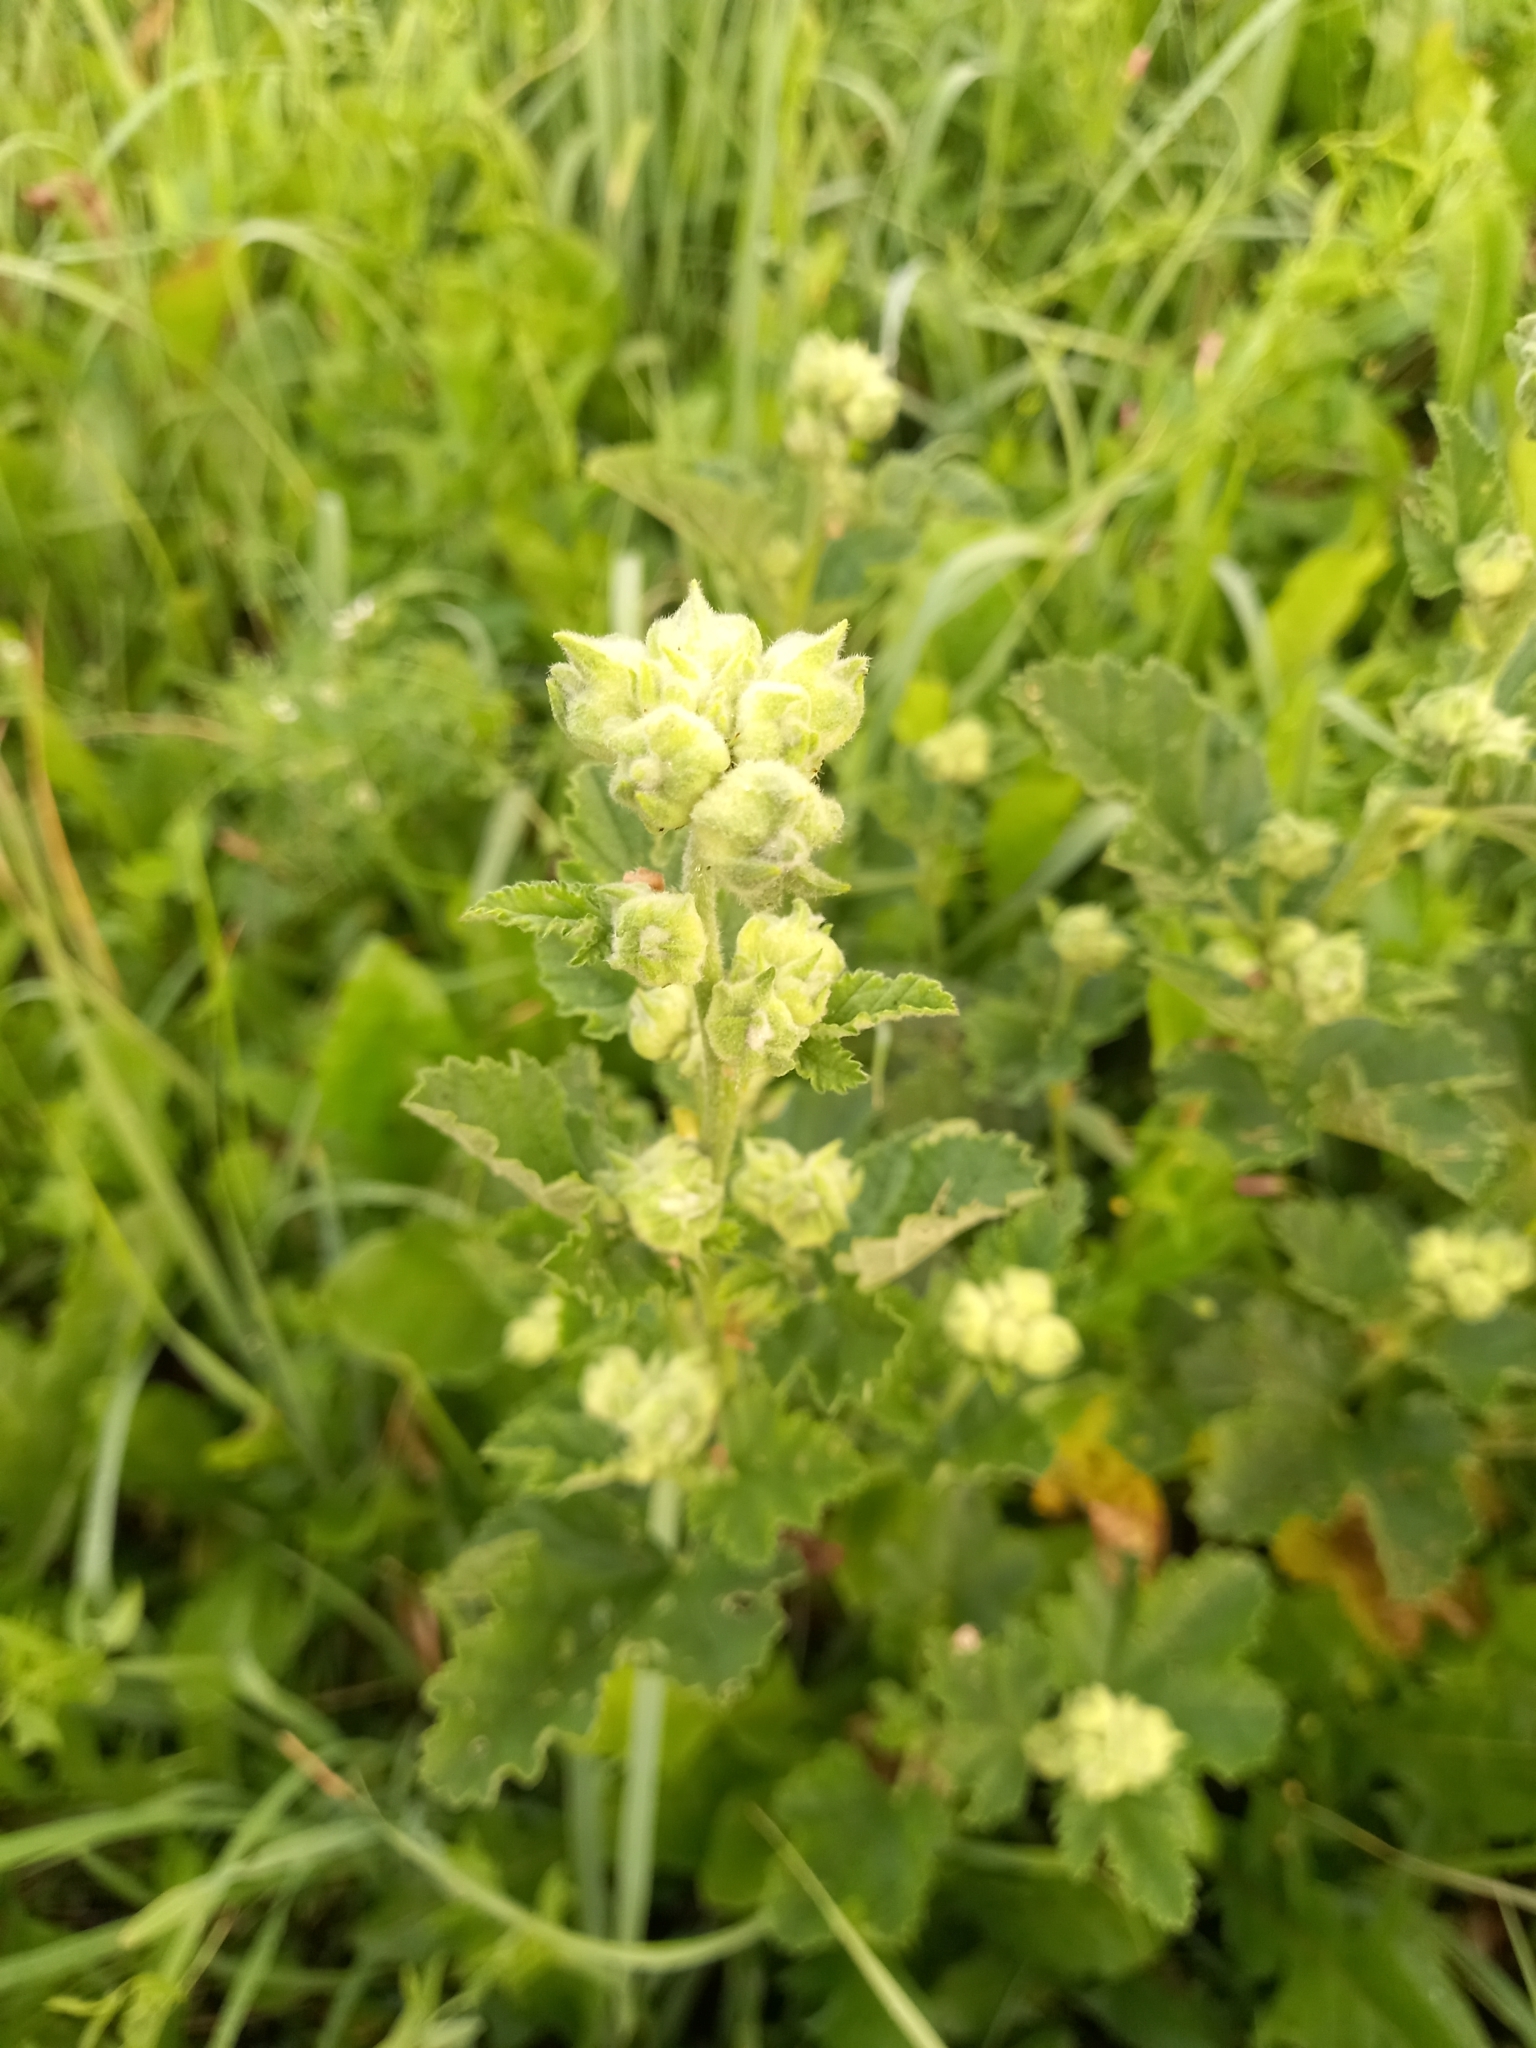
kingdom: Plantae
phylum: Tracheophyta
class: Magnoliopsida
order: Malvales
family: Malvaceae
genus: Malva
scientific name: Malva thuringiaca
